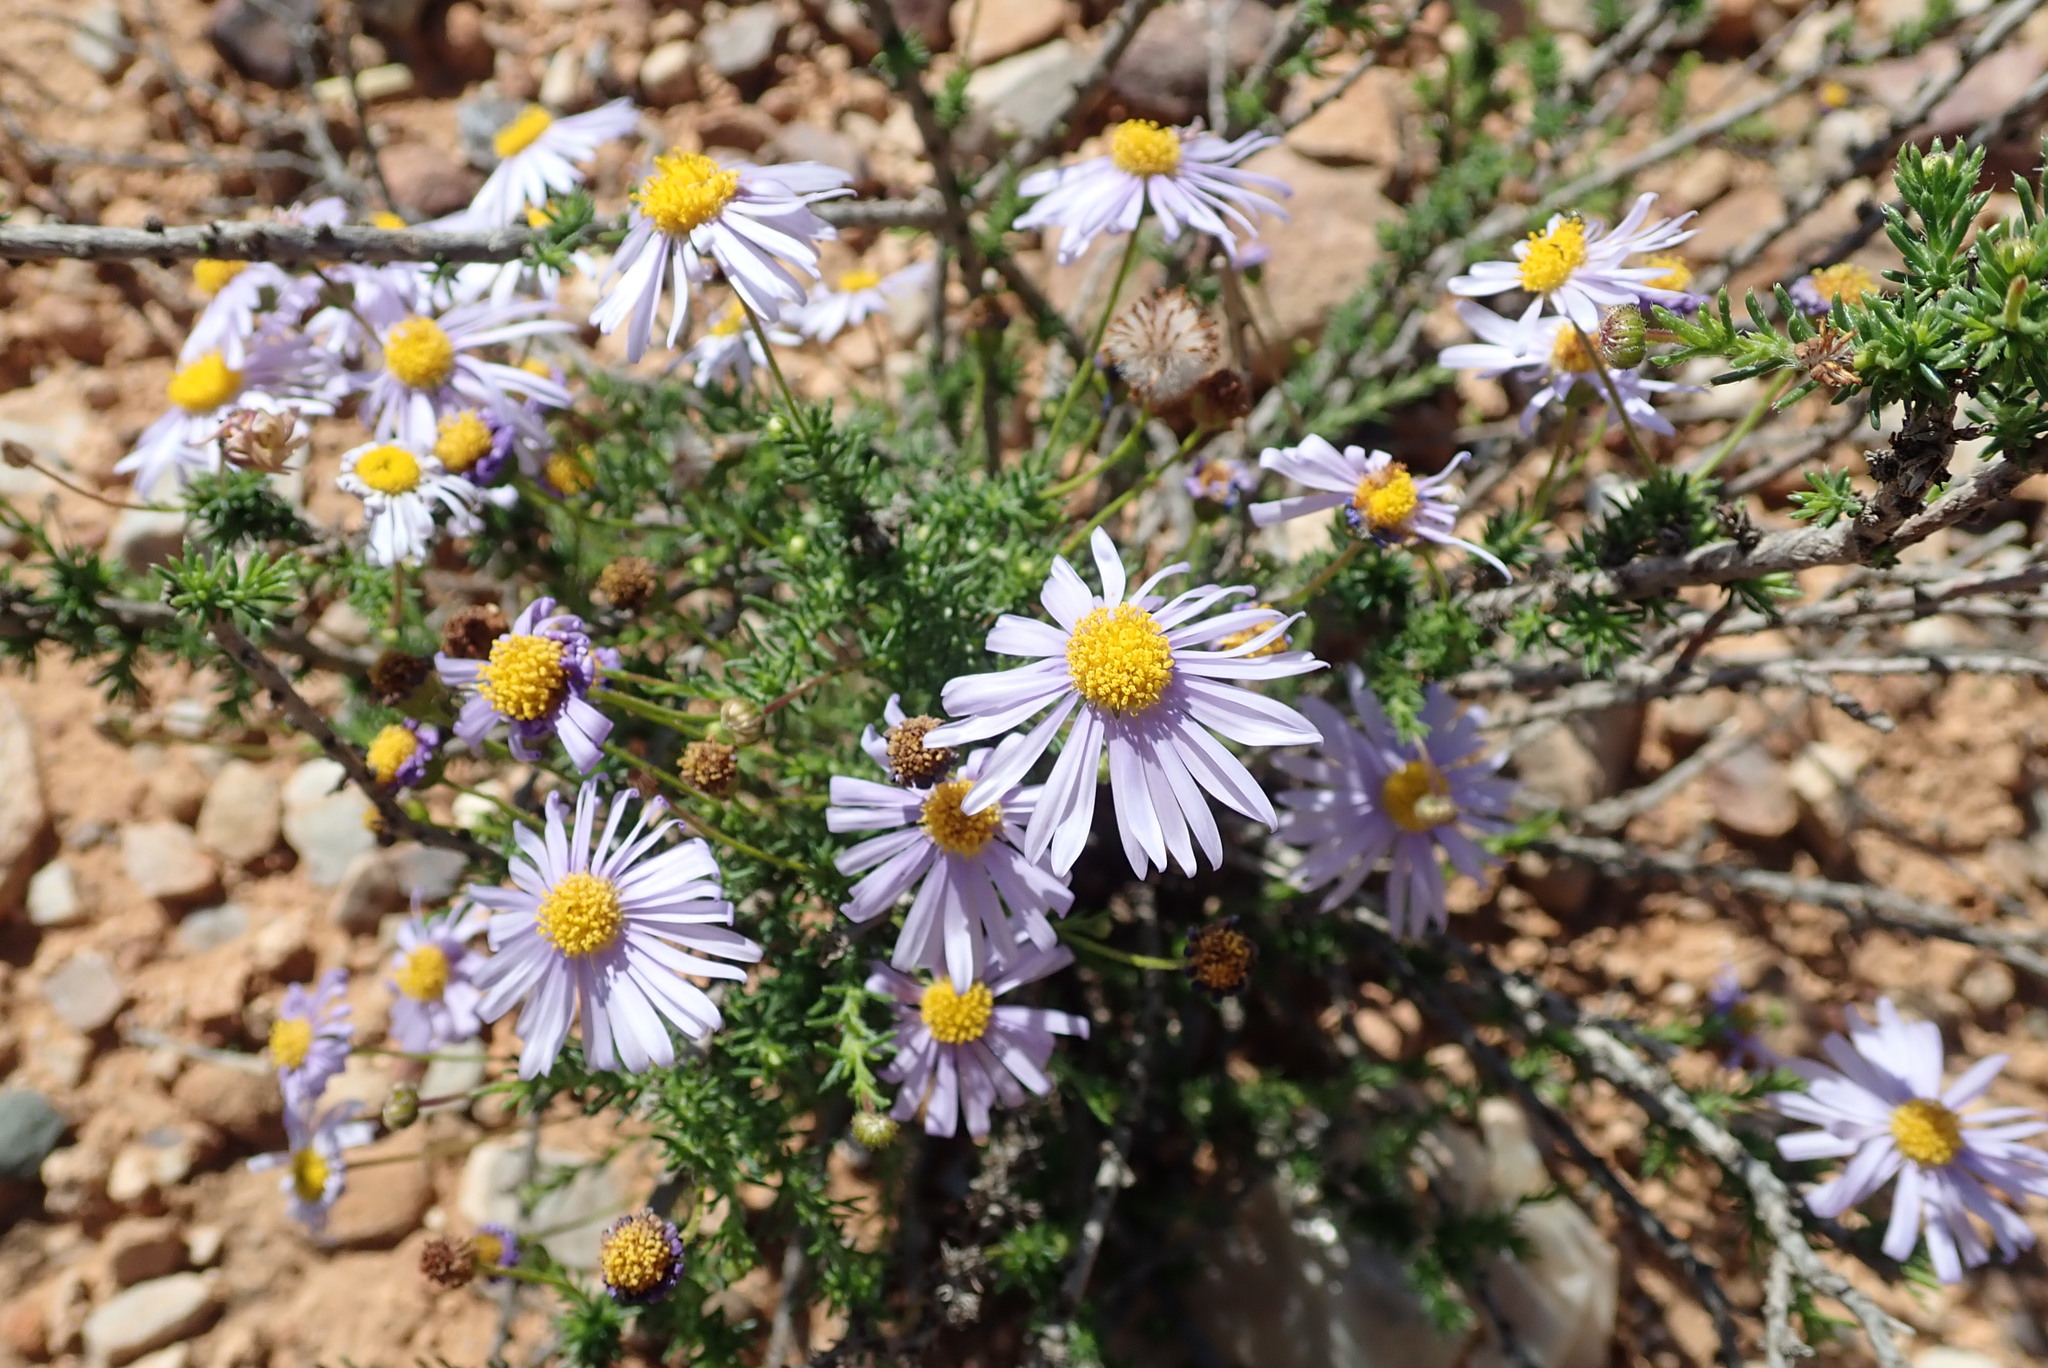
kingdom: Plantae
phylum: Tracheophyta
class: Magnoliopsida
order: Asterales
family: Asteraceae
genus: Felicia
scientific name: Felicia muricata
